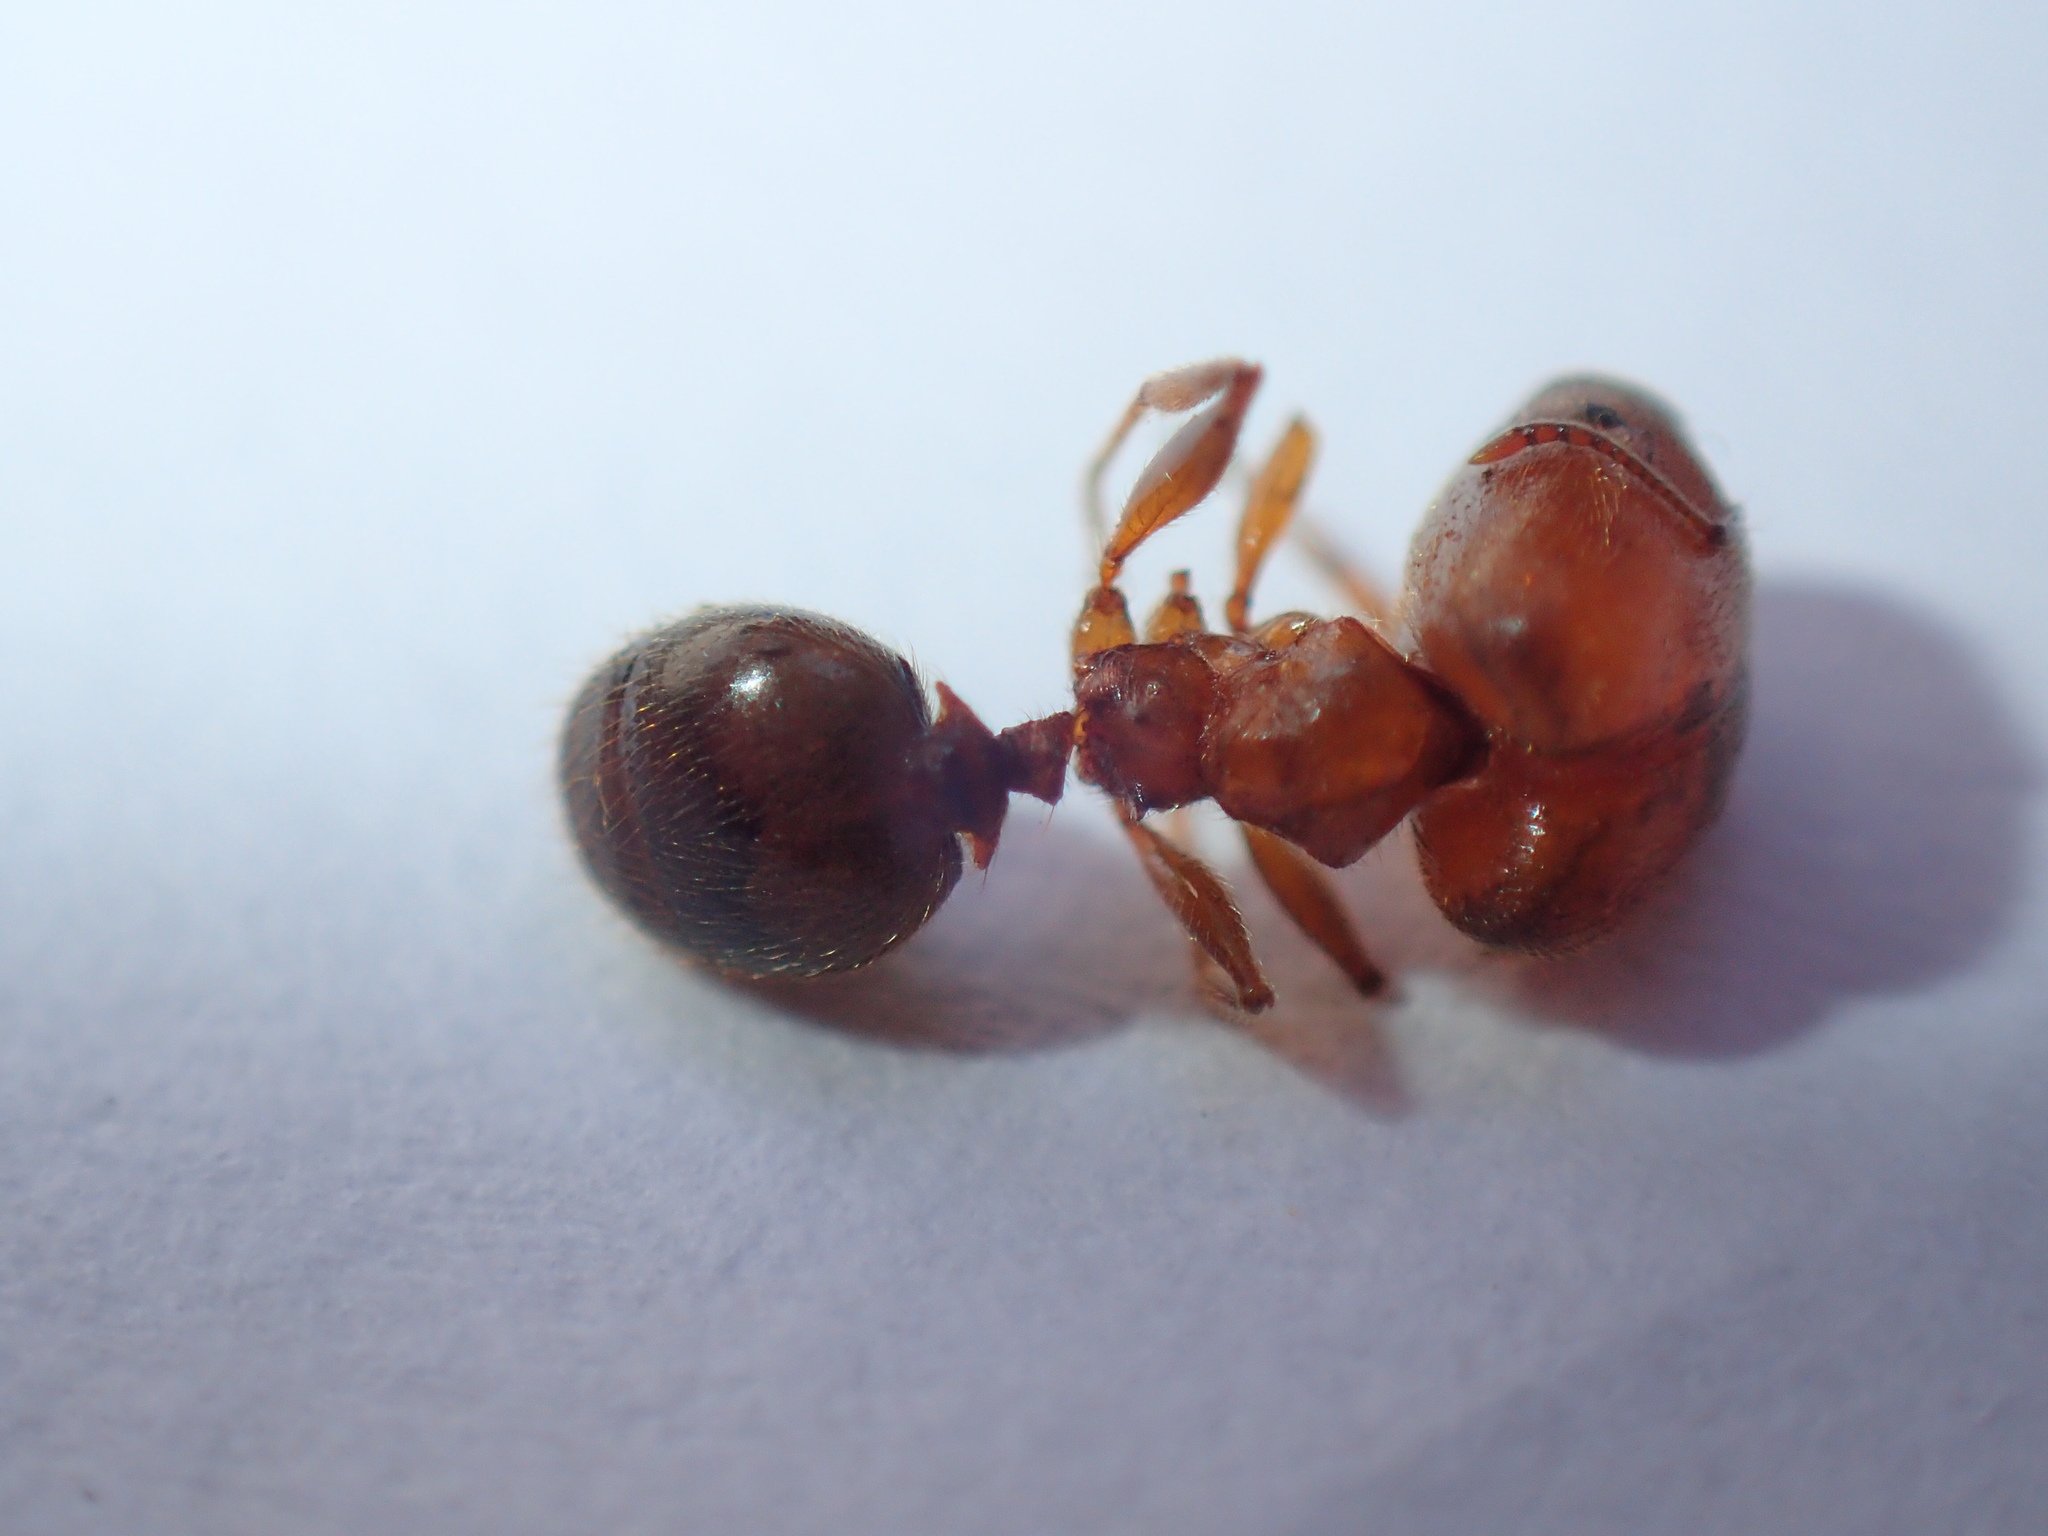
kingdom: Animalia
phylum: Arthropoda
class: Insecta
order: Hymenoptera
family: Formicidae
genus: Pheidole
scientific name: Pheidole sculpturata
